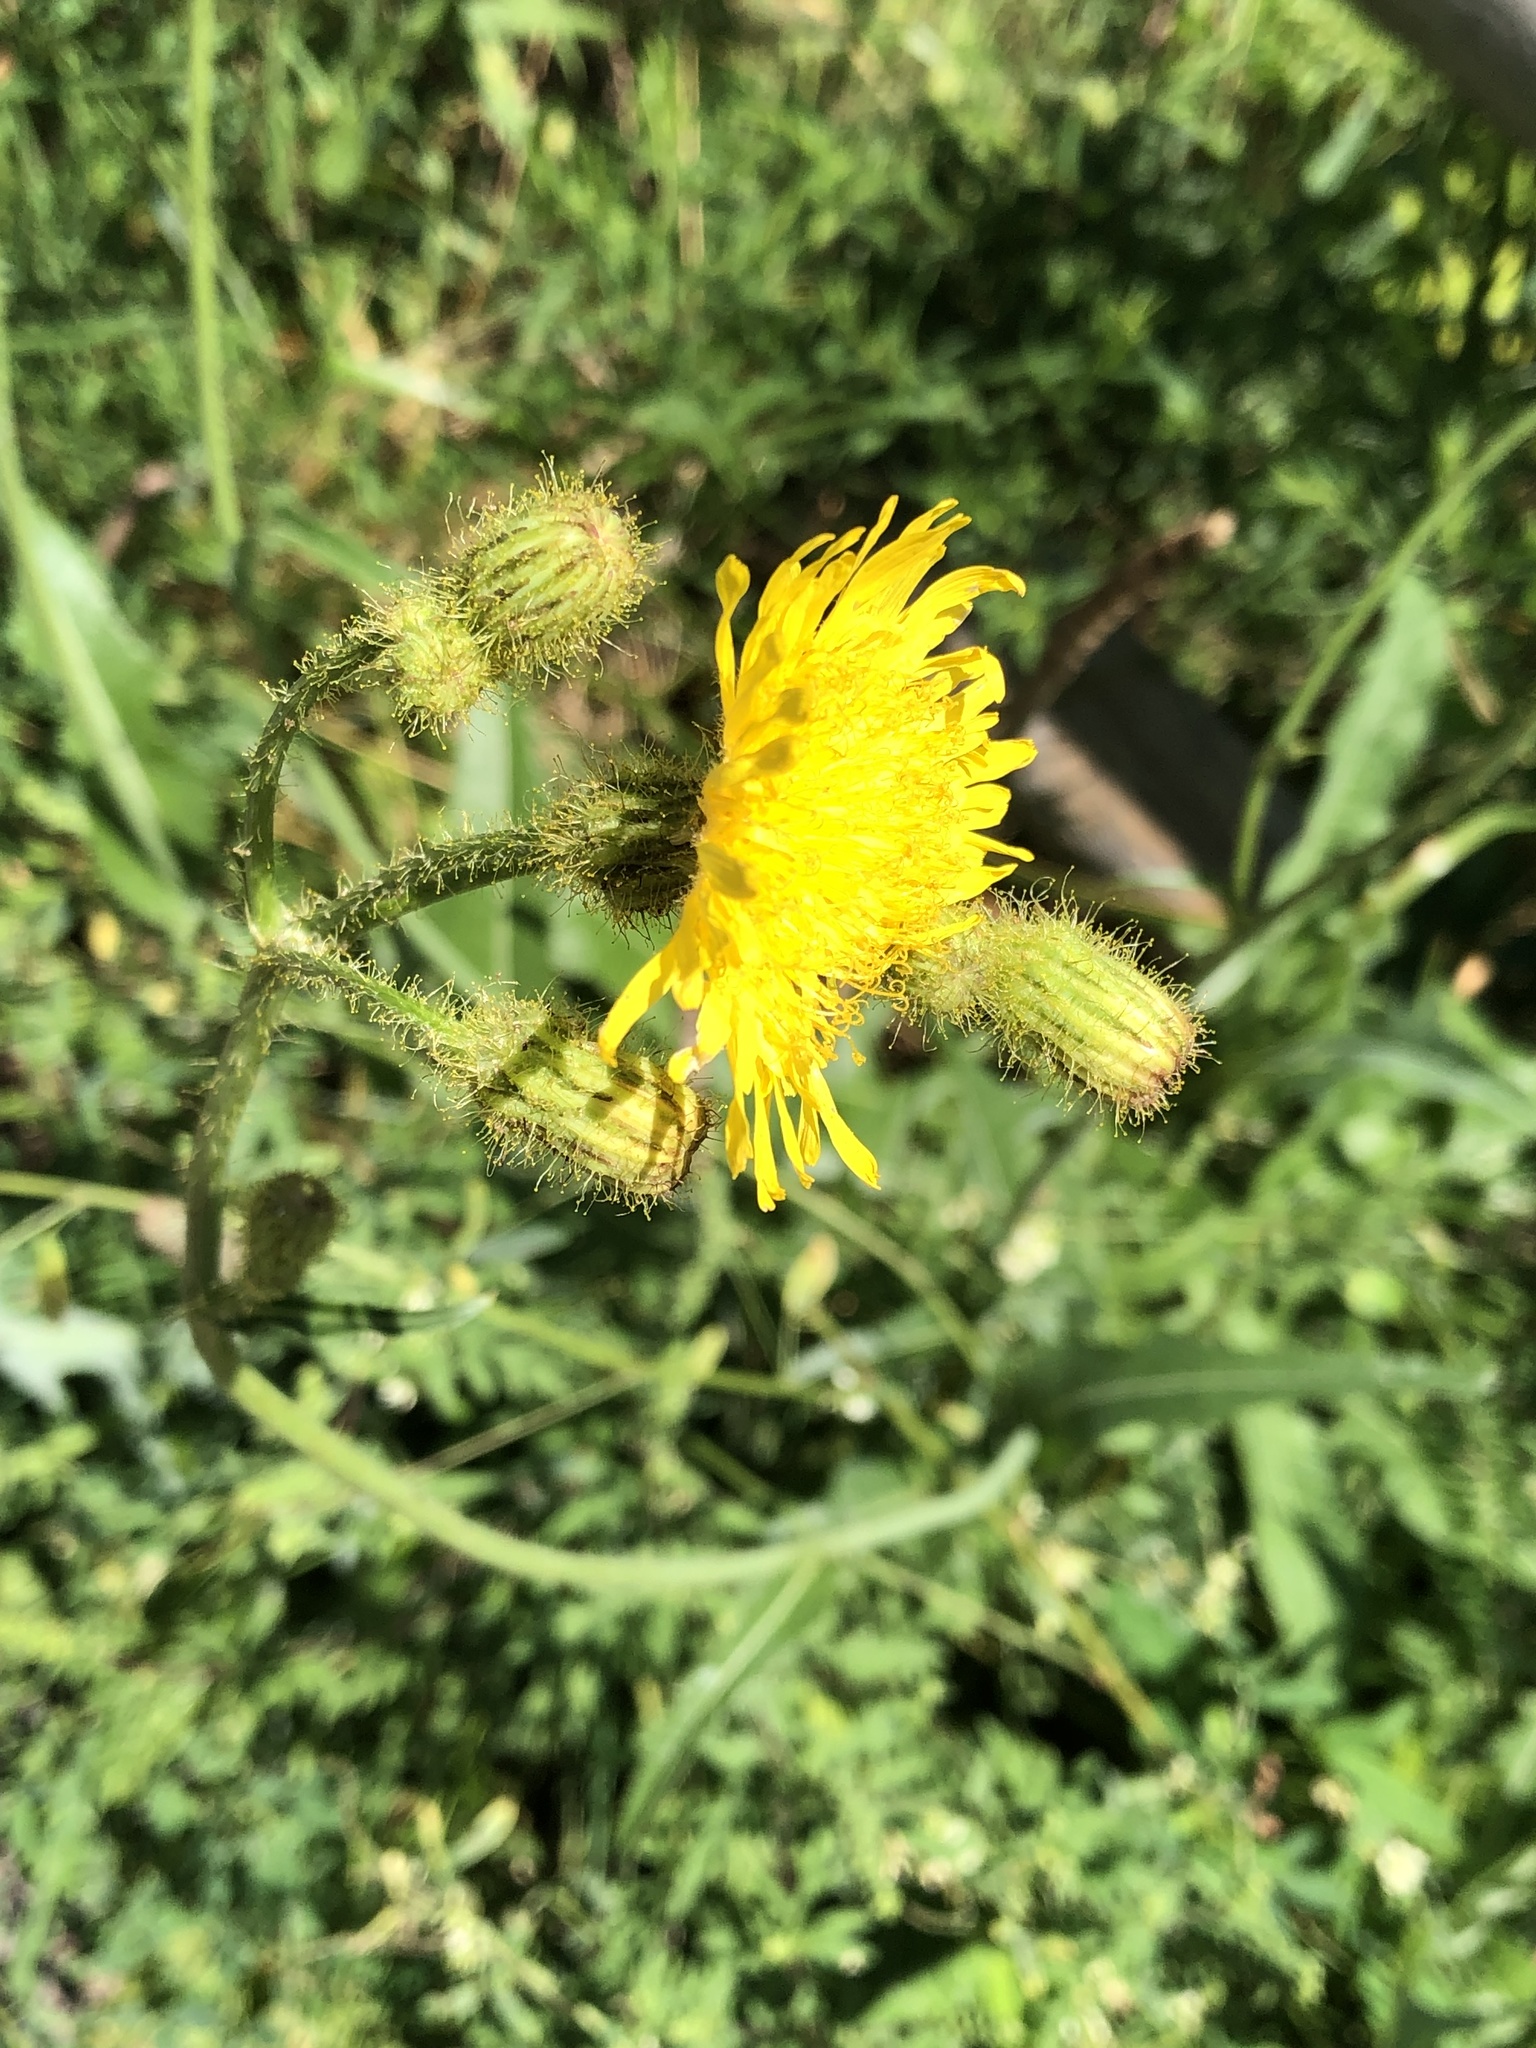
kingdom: Plantae
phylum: Tracheophyta
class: Magnoliopsida
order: Asterales
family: Asteraceae
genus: Sonchus
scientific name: Sonchus arvensis
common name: Perennial sow-thistle
